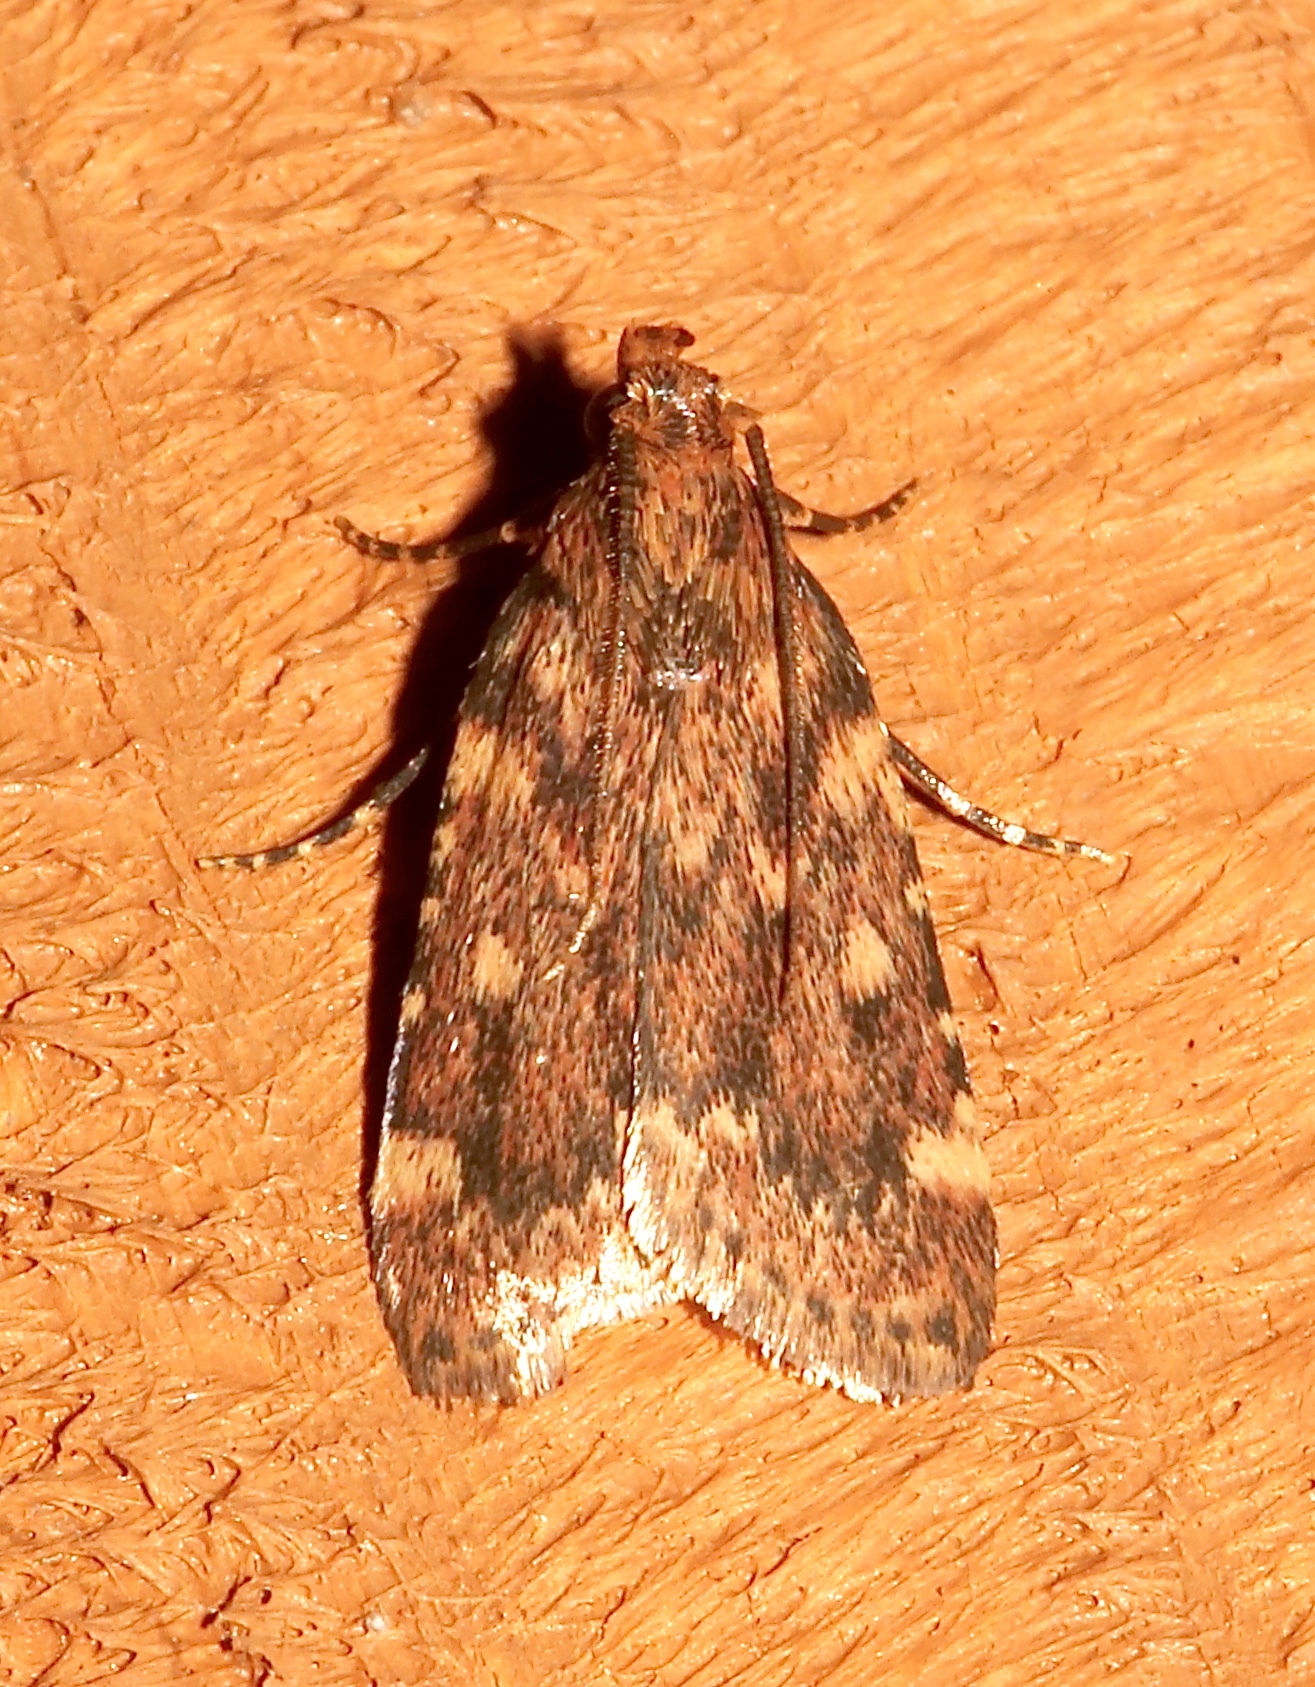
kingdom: Animalia
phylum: Arthropoda
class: Insecta
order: Lepidoptera
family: Pyralidae
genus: Aglossa
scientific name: Aglossa cuprina
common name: Grease moth
